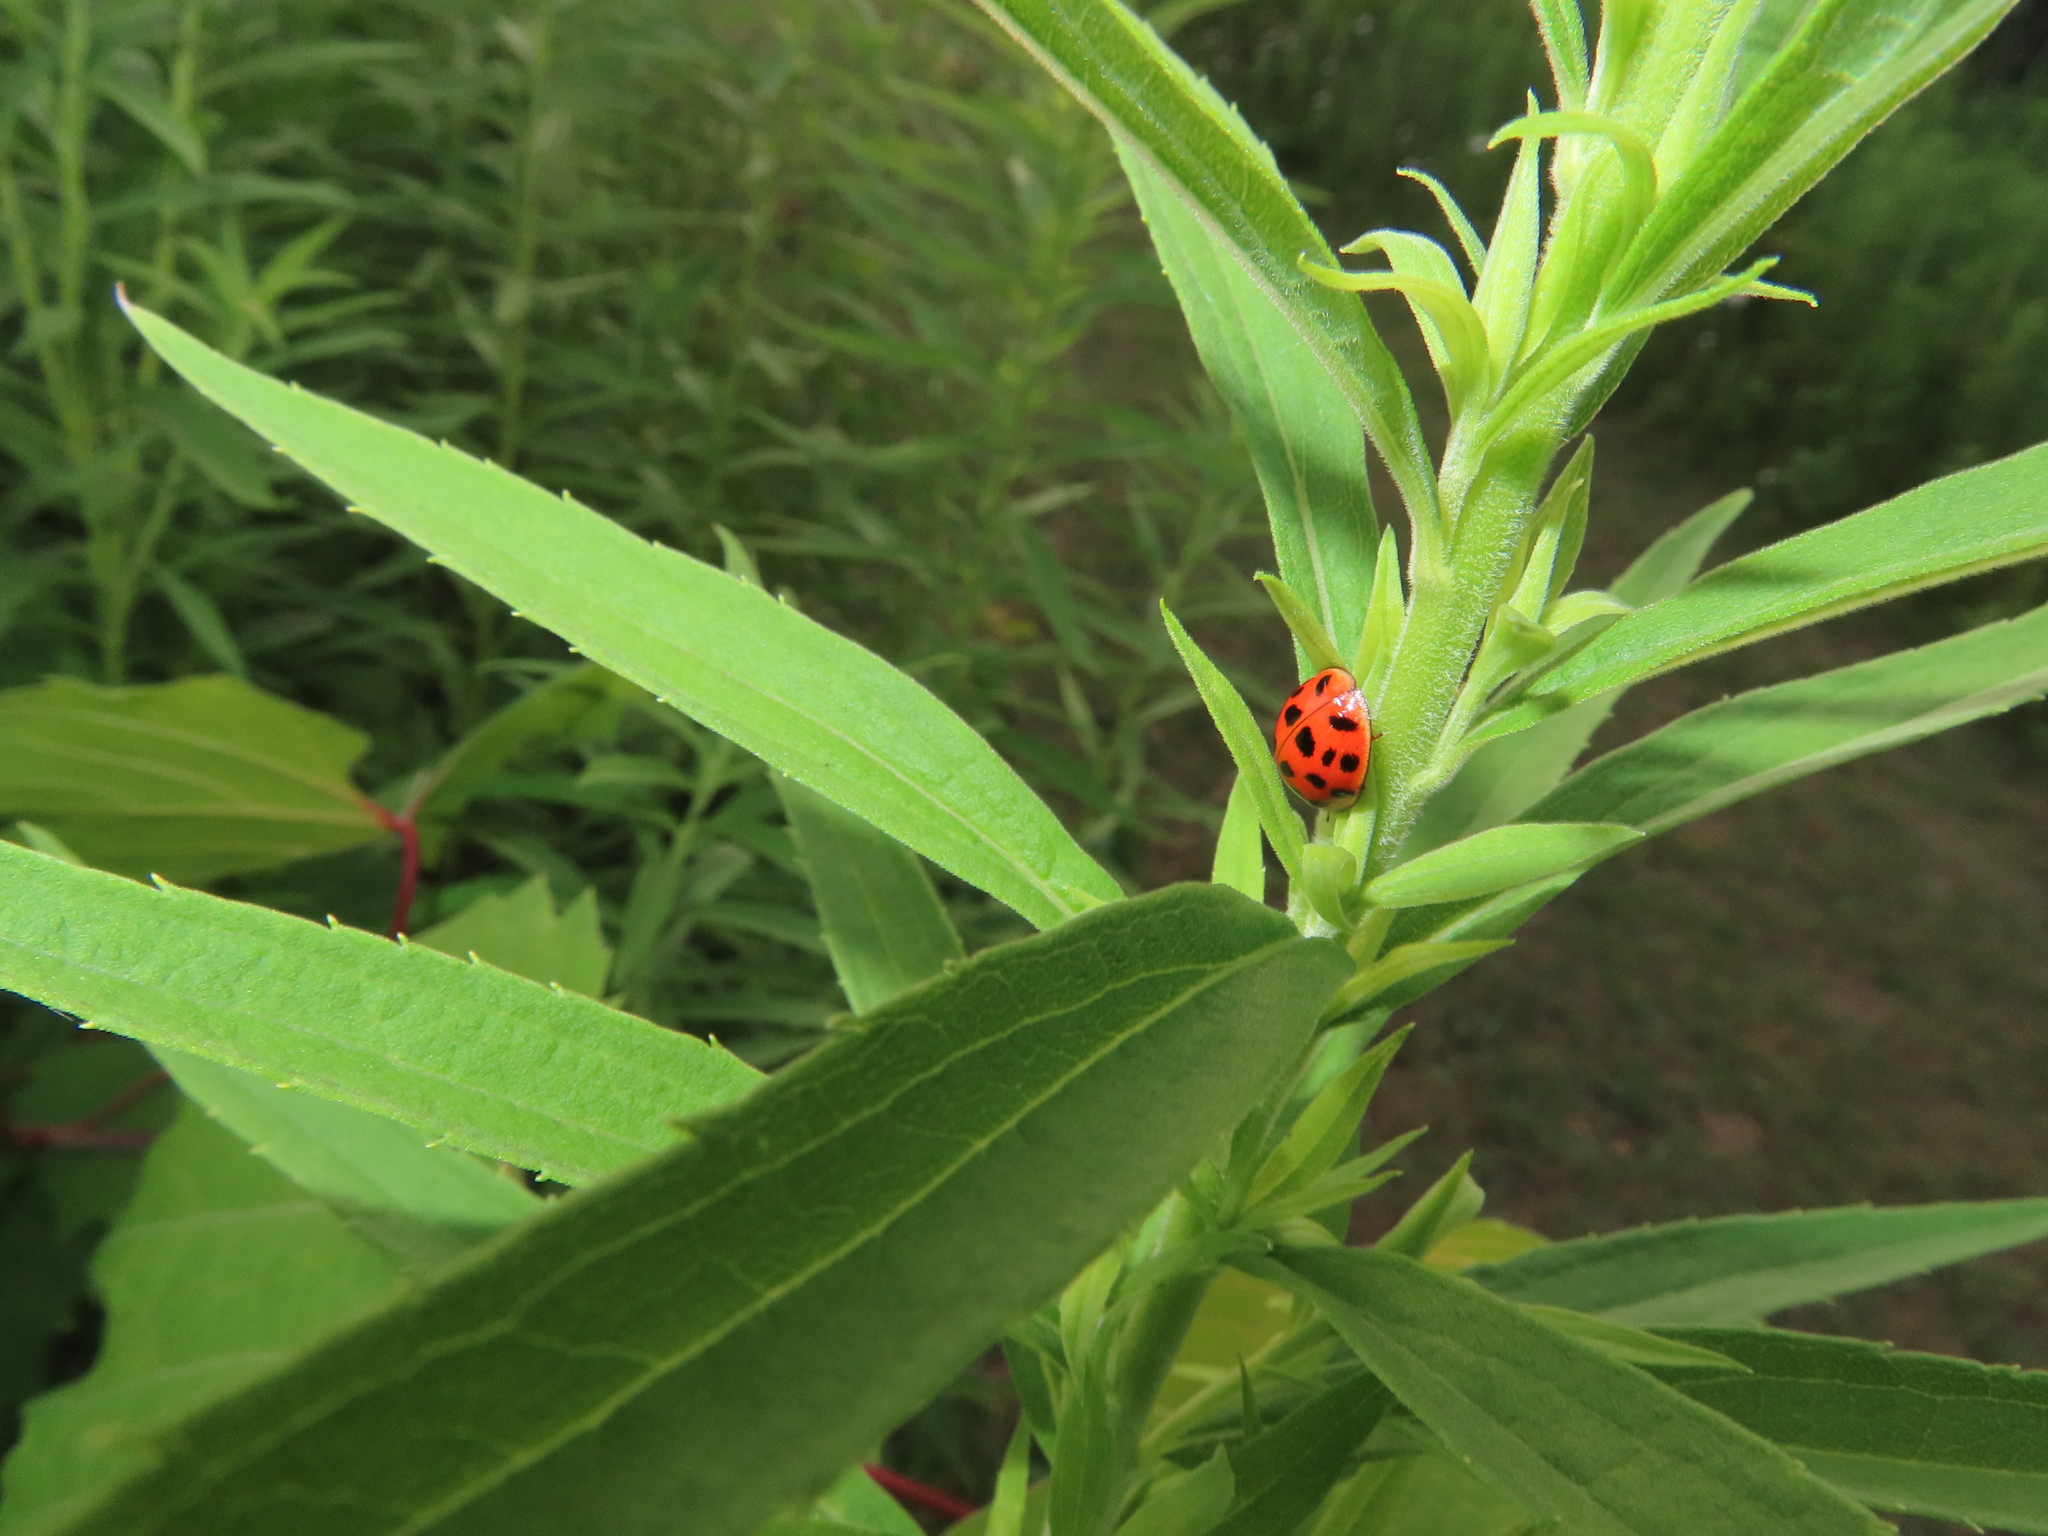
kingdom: Animalia
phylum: Arthropoda
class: Insecta
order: Coleoptera
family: Coccinellidae
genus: Harmonia
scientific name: Harmonia axyridis
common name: Harlequin ladybird
